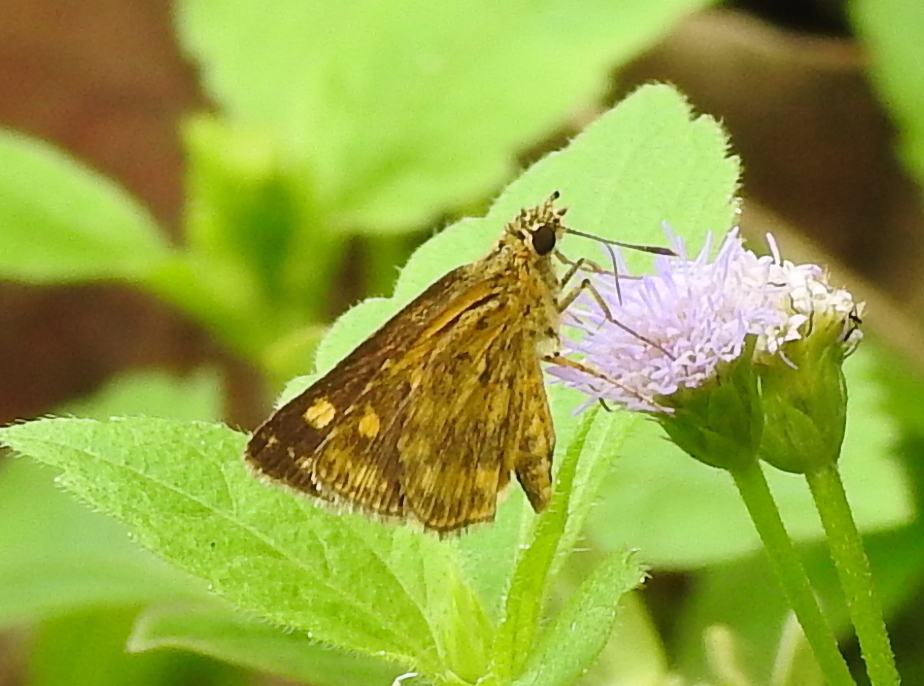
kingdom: Animalia
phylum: Arthropoda
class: Insecta
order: Lepidoptera
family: Hesperiidae
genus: Ampittia
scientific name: Ampittia dioscorides
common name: Common bush hopper
